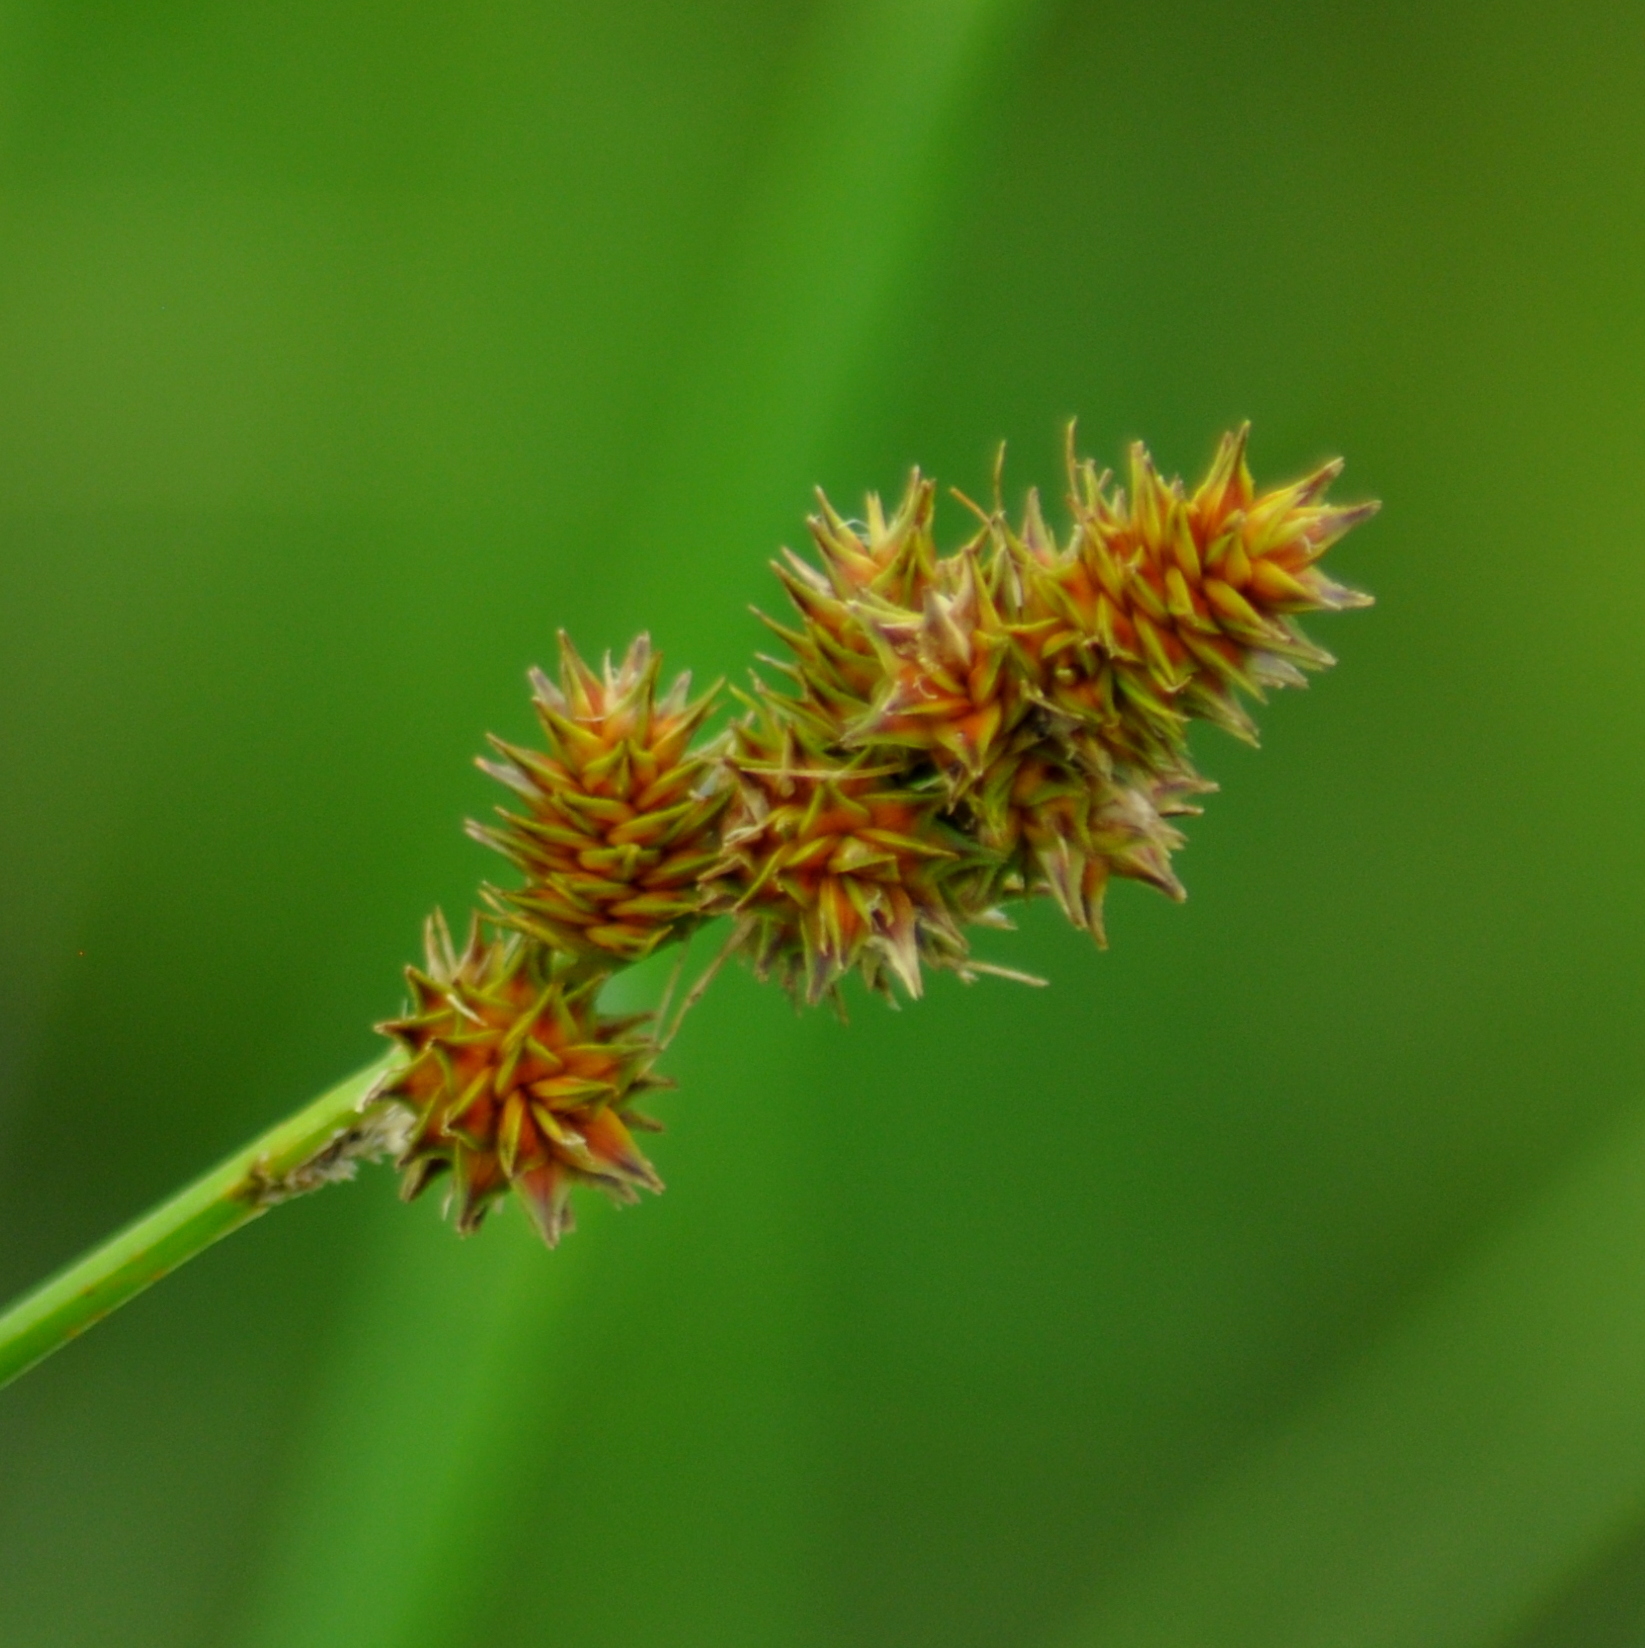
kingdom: Plantae
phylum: Tracheophyta
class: Liliopsida
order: Poales
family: Cyperaceae
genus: Carex
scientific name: Carex brongniartii
